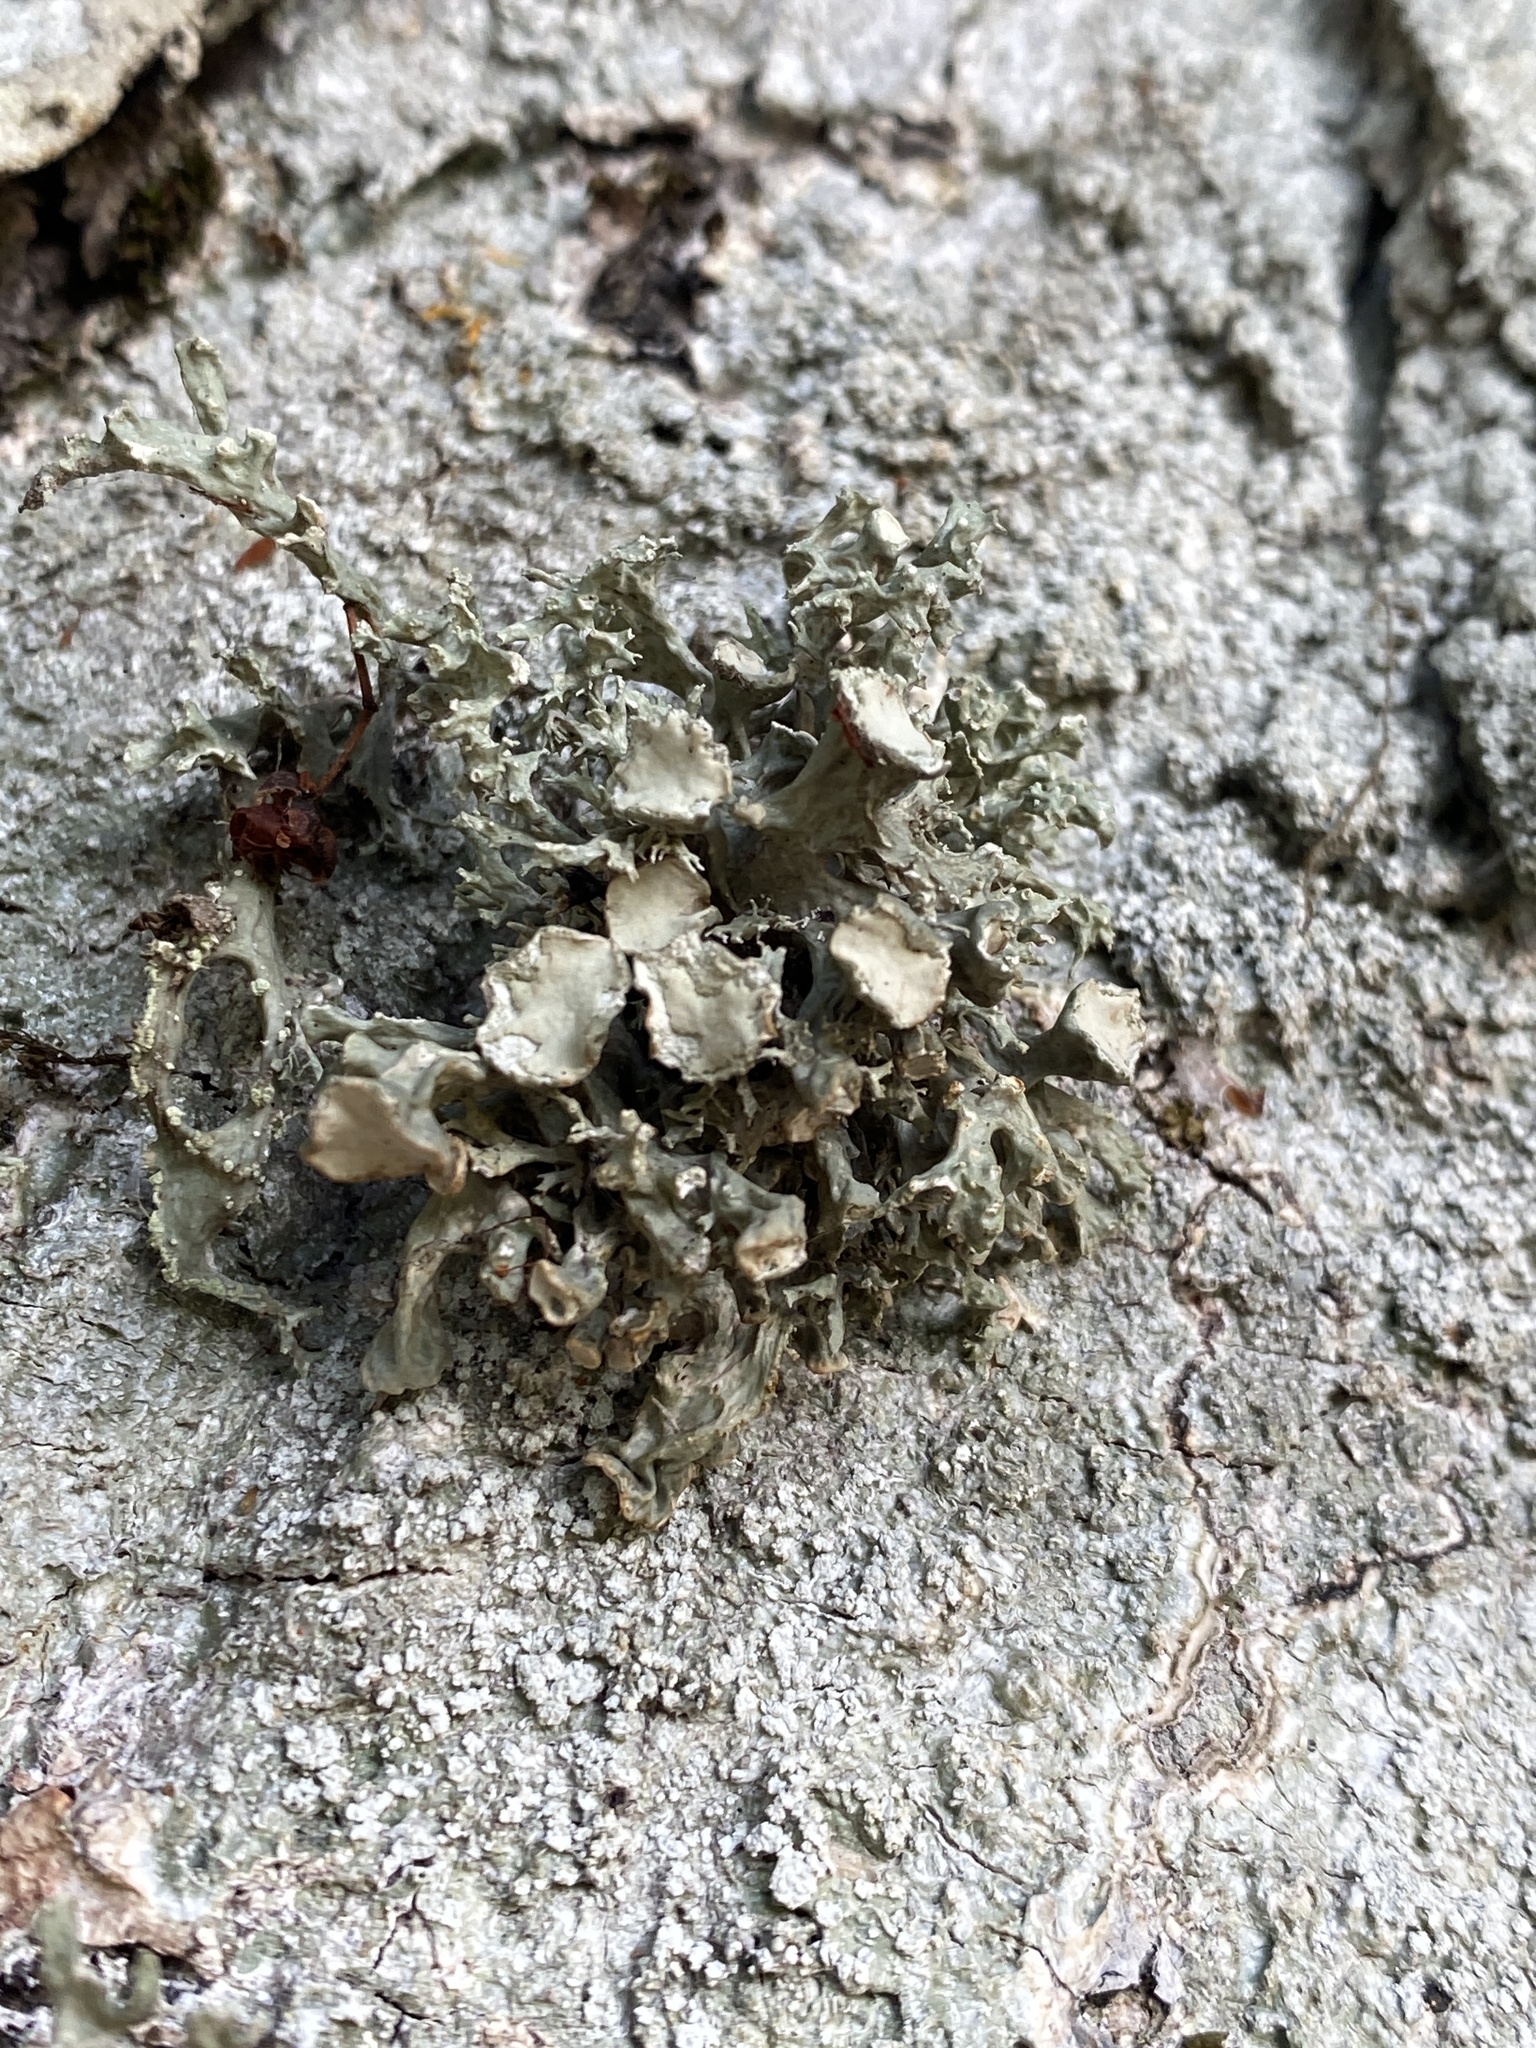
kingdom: Fungi
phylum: Ascomycota
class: Lecanoromycetes
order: Lecanorales
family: Ramalinaceae
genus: Ramalina
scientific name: Ramalina fastigiata
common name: Dotted ribbon lichen
